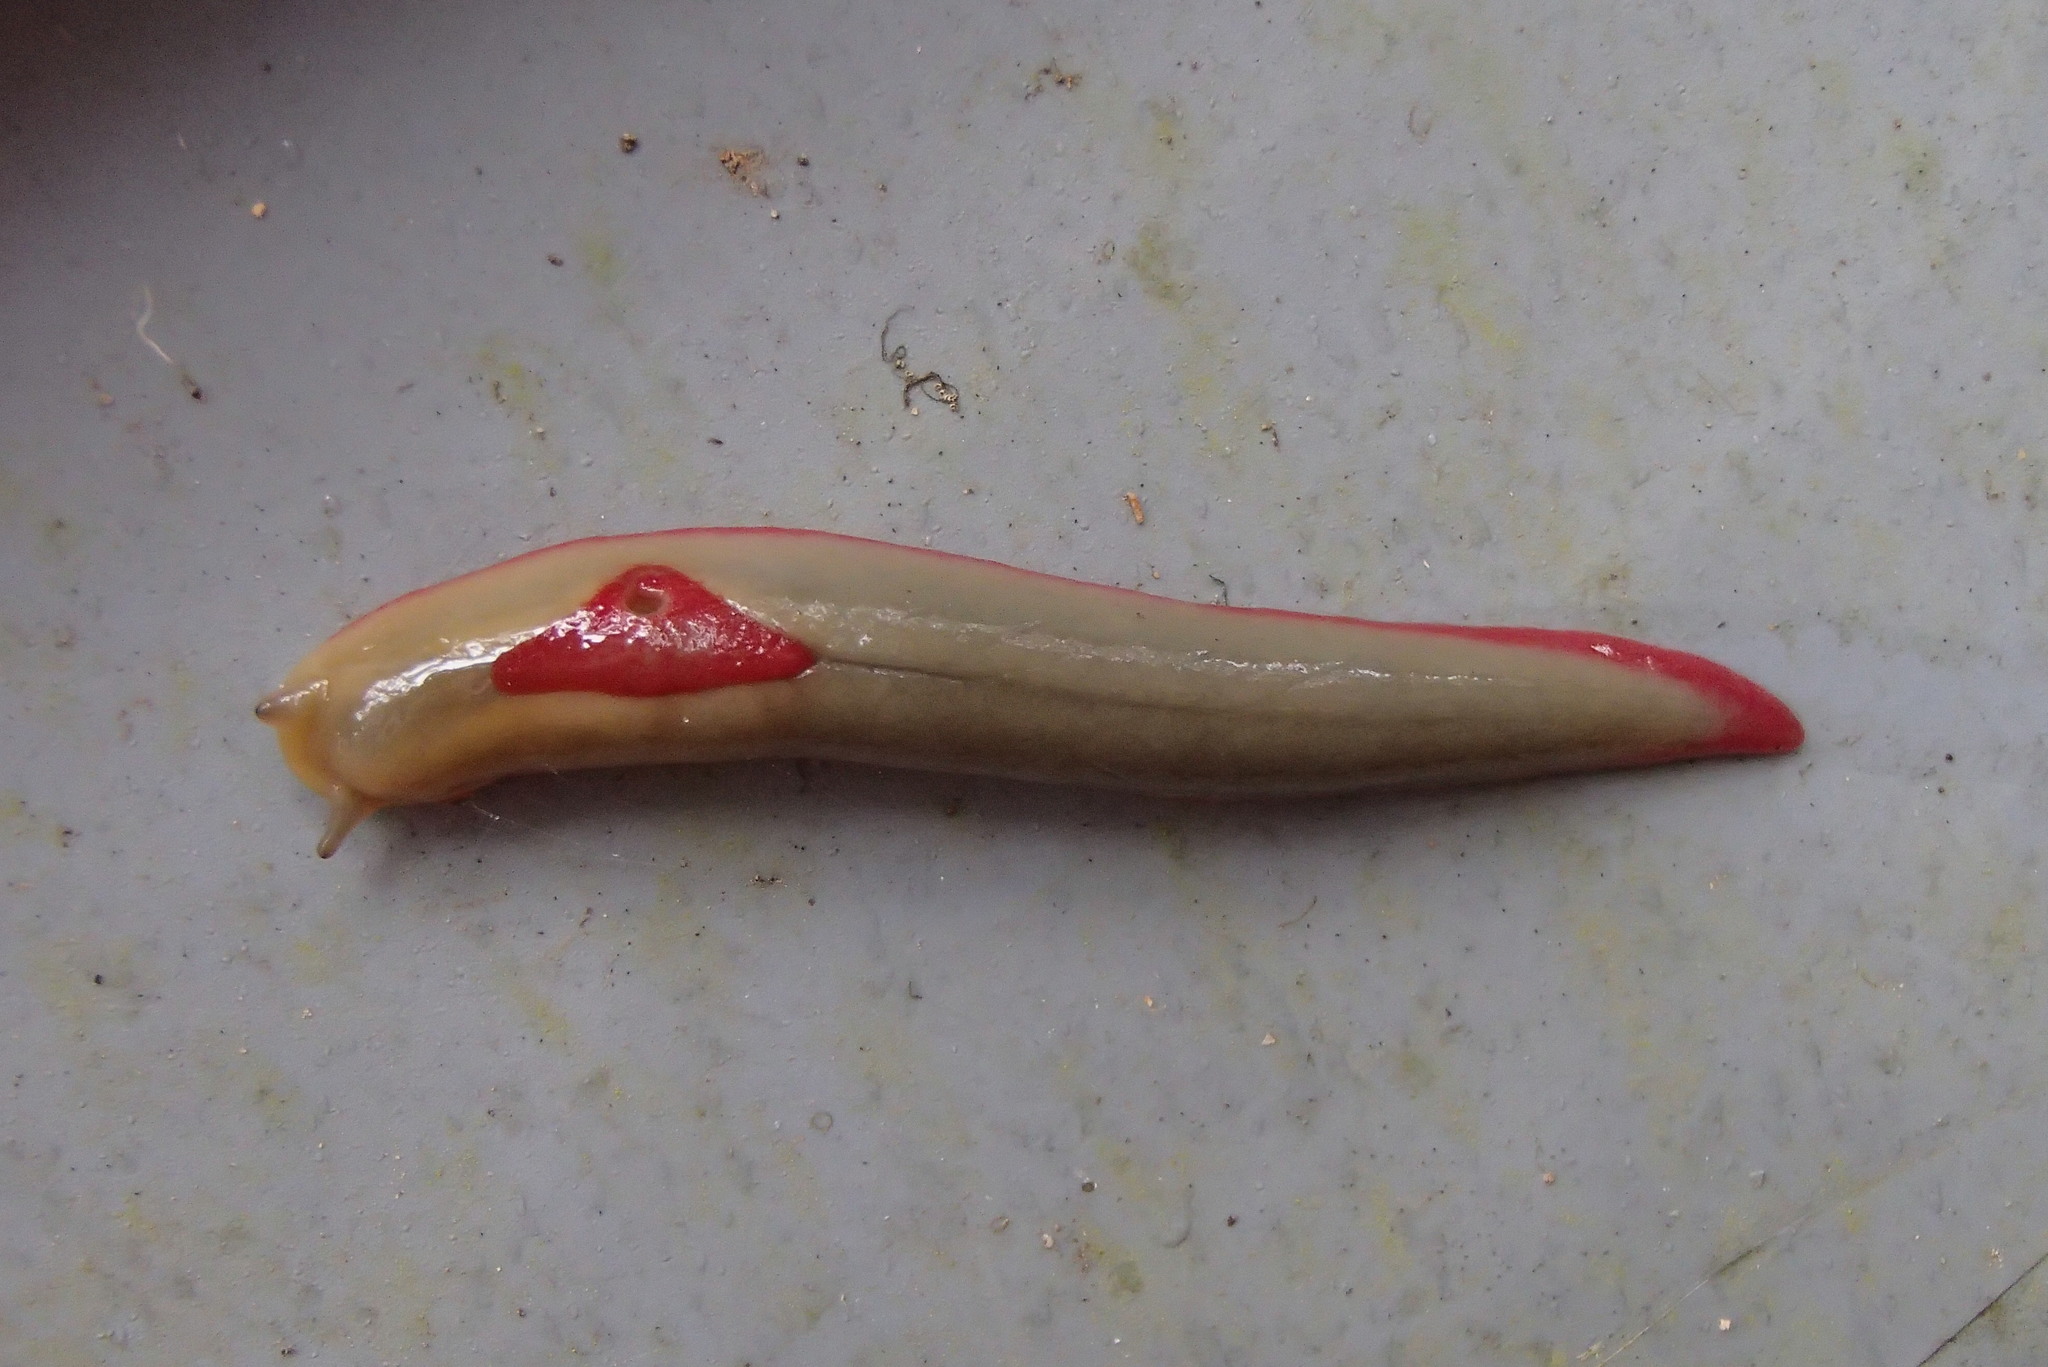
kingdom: Animalia
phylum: Mollusca
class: Gastropoda
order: Stylommatophora
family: Athoracophoridae
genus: Triboniophorus
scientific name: Triboniophorus graeffei
